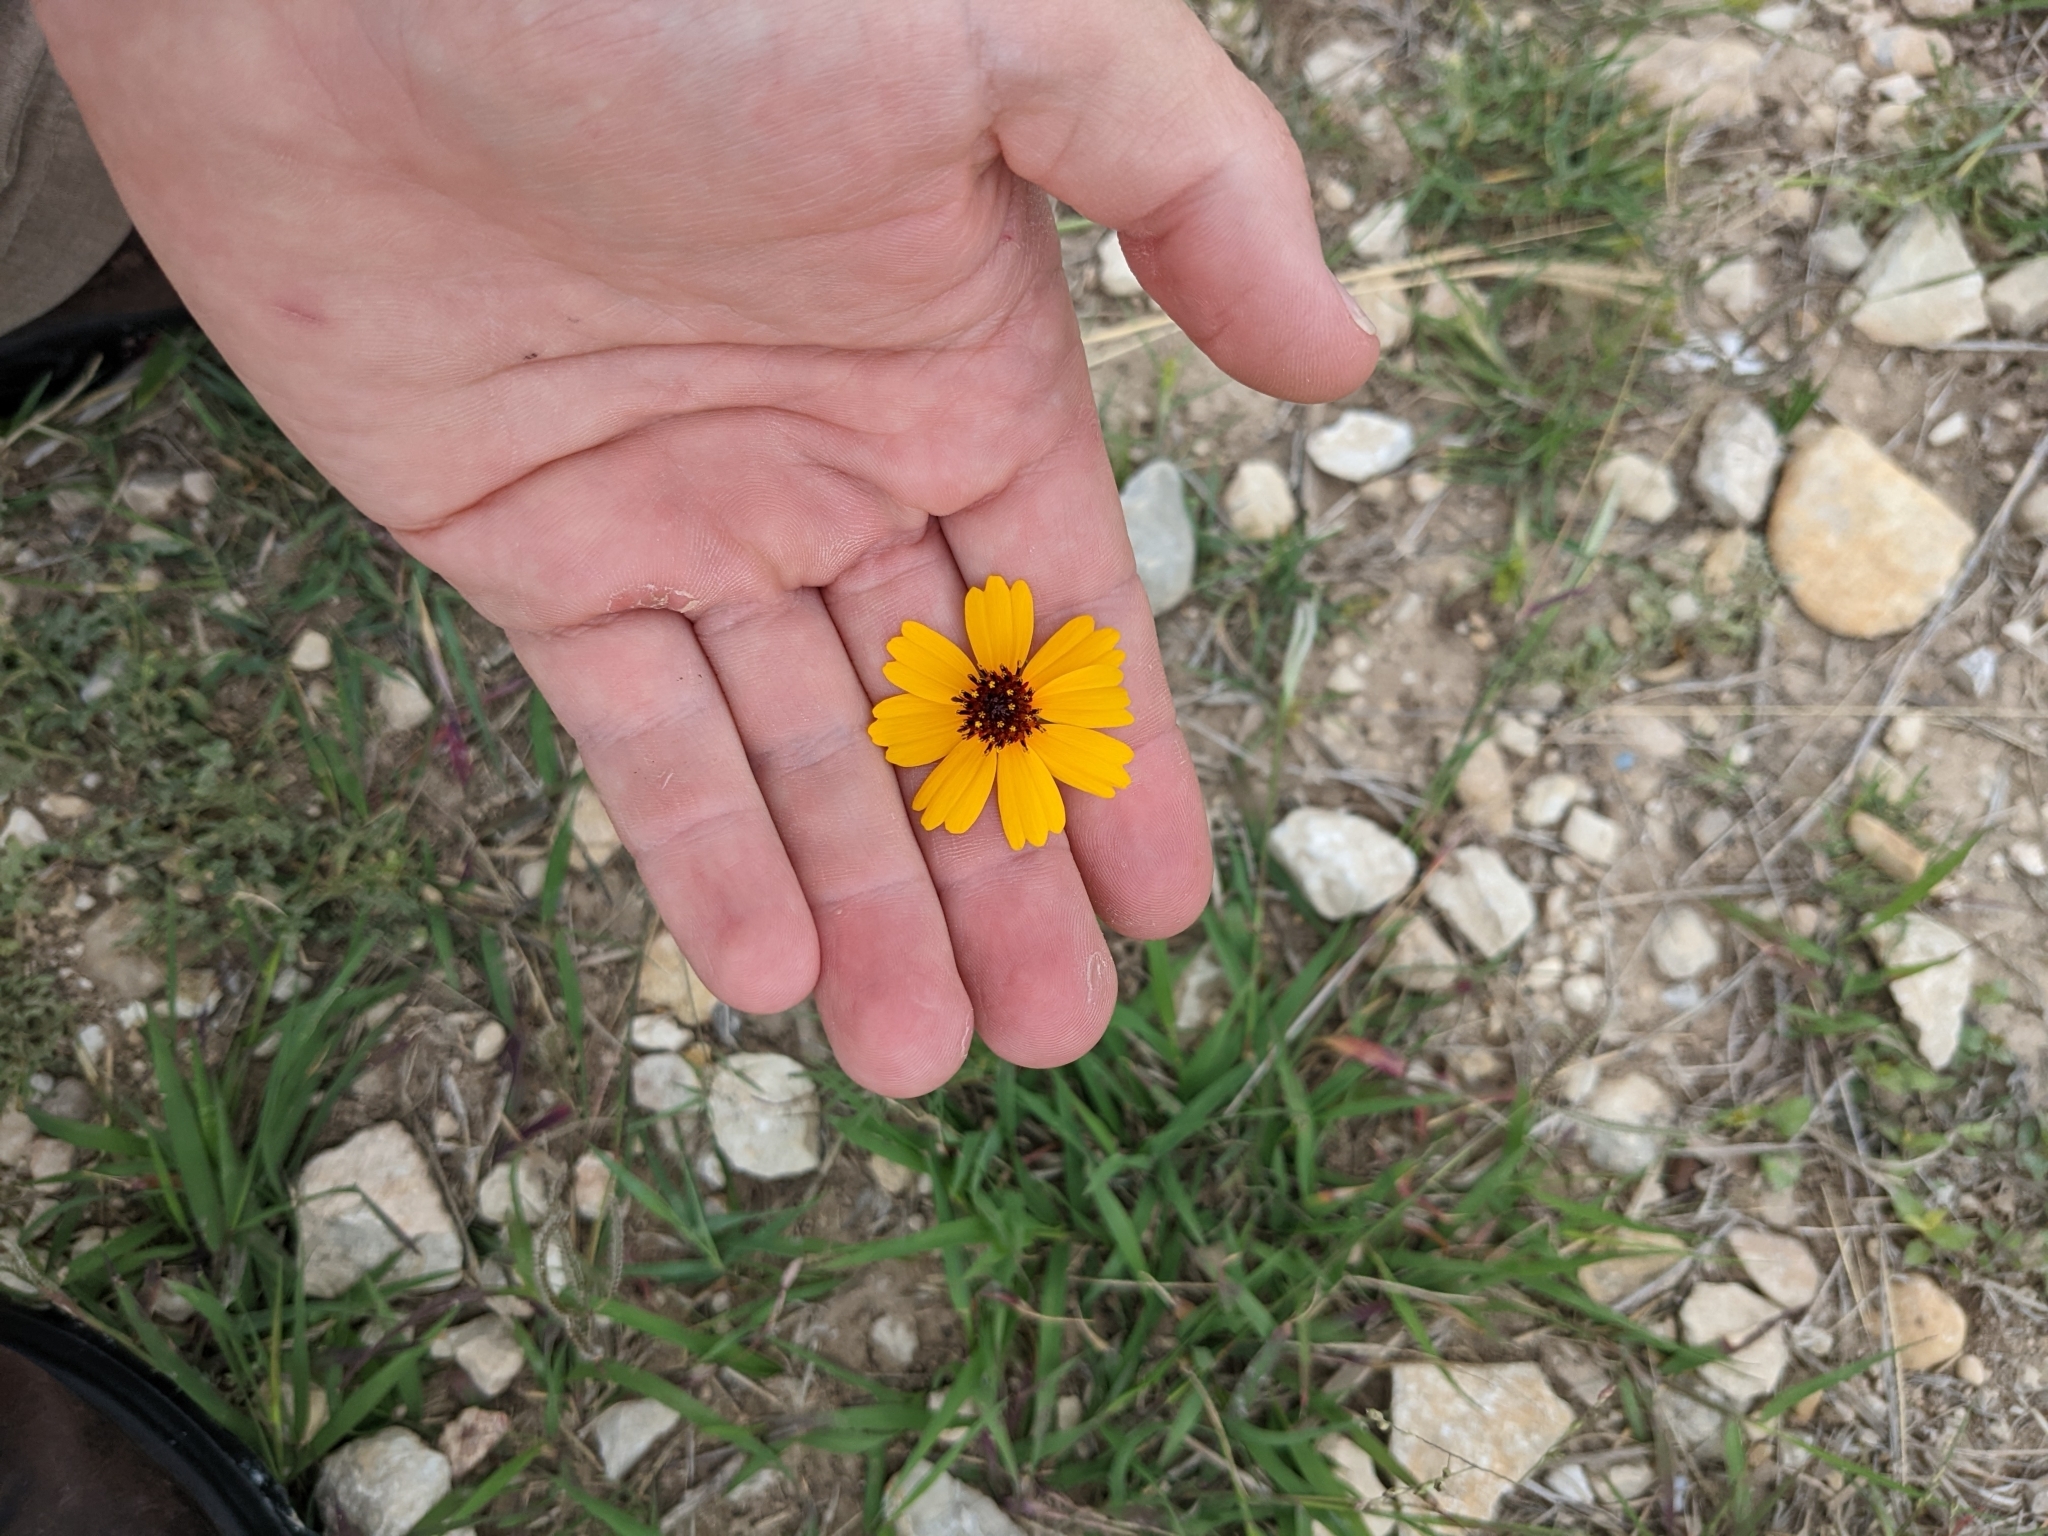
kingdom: Plantae
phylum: Tracheophyta
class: Magnoliopsida
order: Asterales
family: Asteraceae
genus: Thelesperma
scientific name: Thelesperma filifolium
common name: Stiff greenthread
